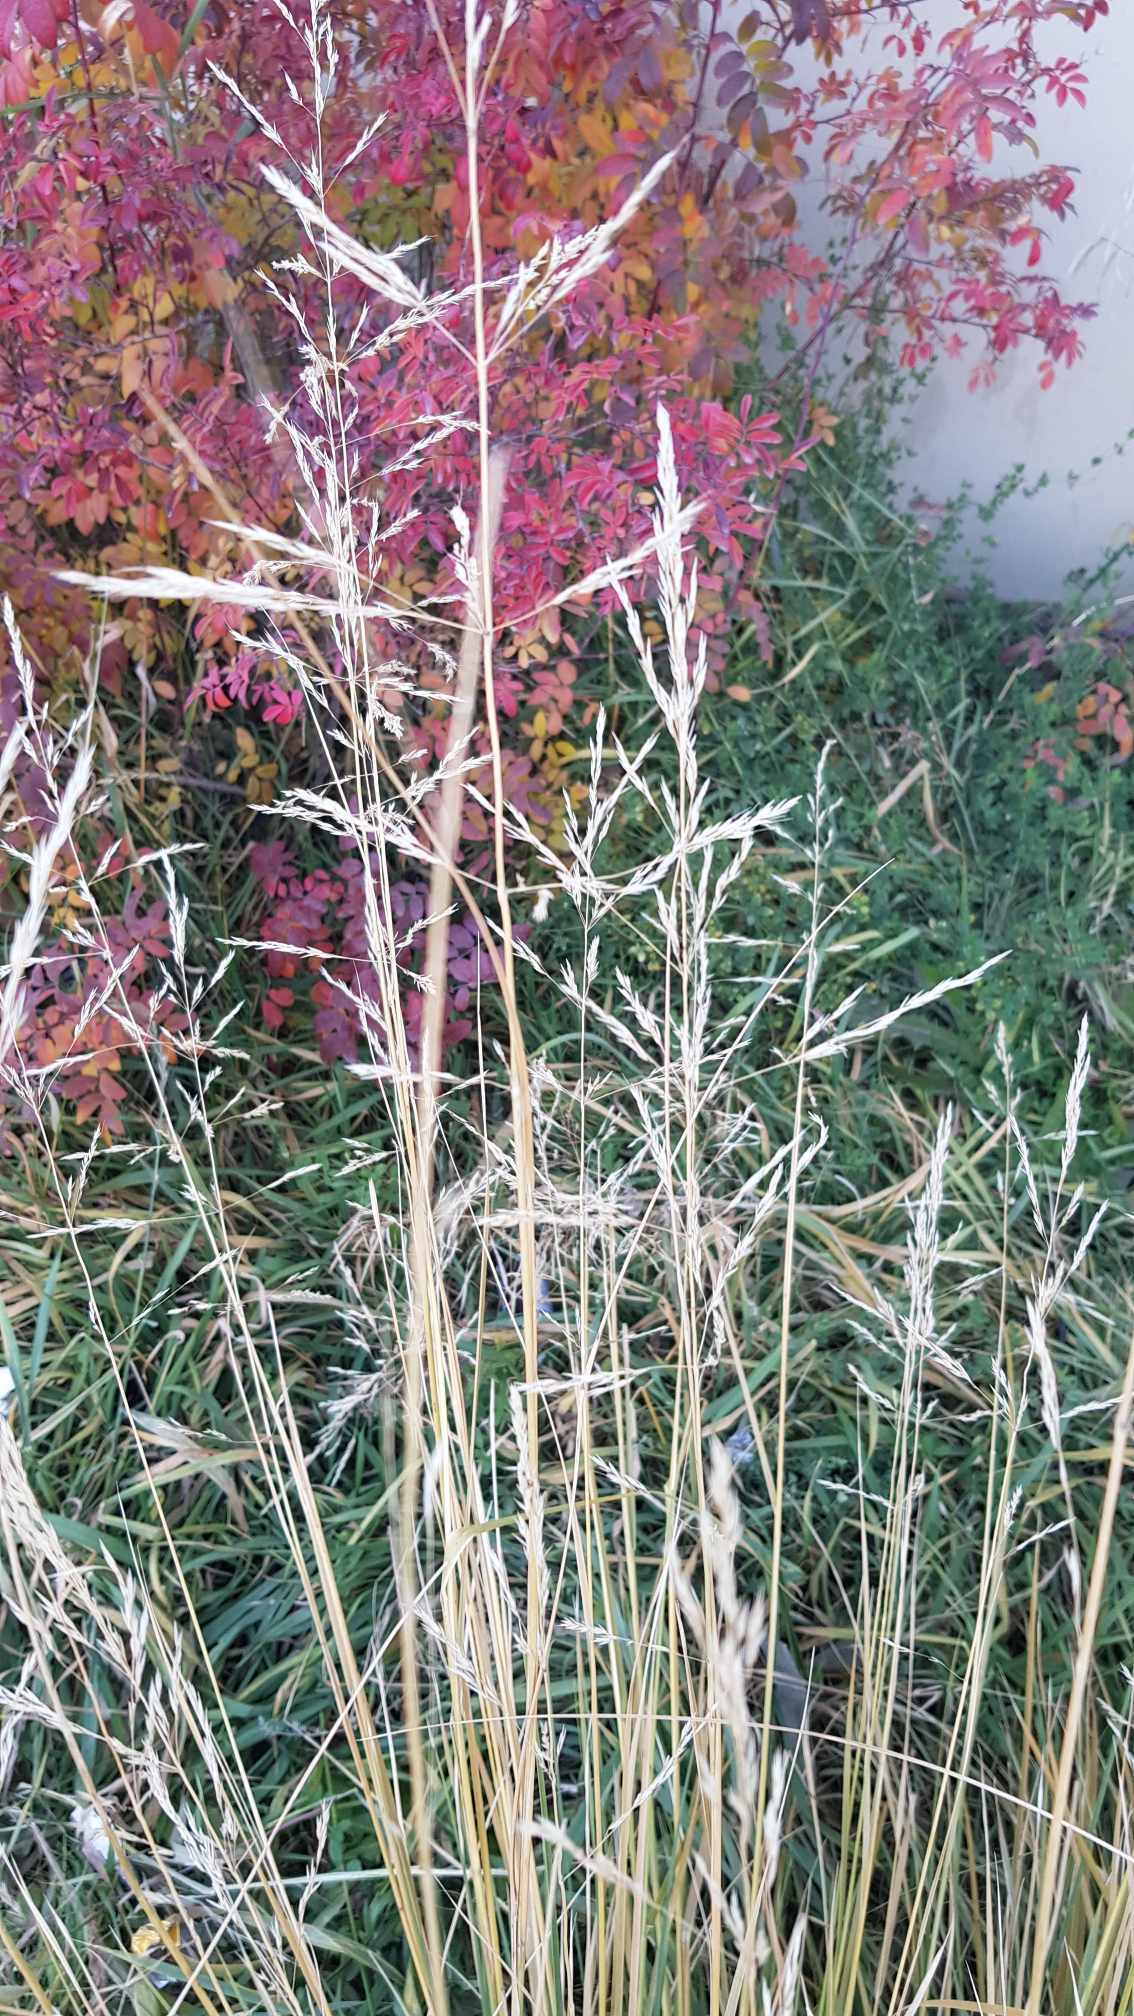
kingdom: Plantae
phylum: Tracheophyta
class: Liliopsida
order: Poales
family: Poaceae
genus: Neotrinia
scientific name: Neotrinia splendens
